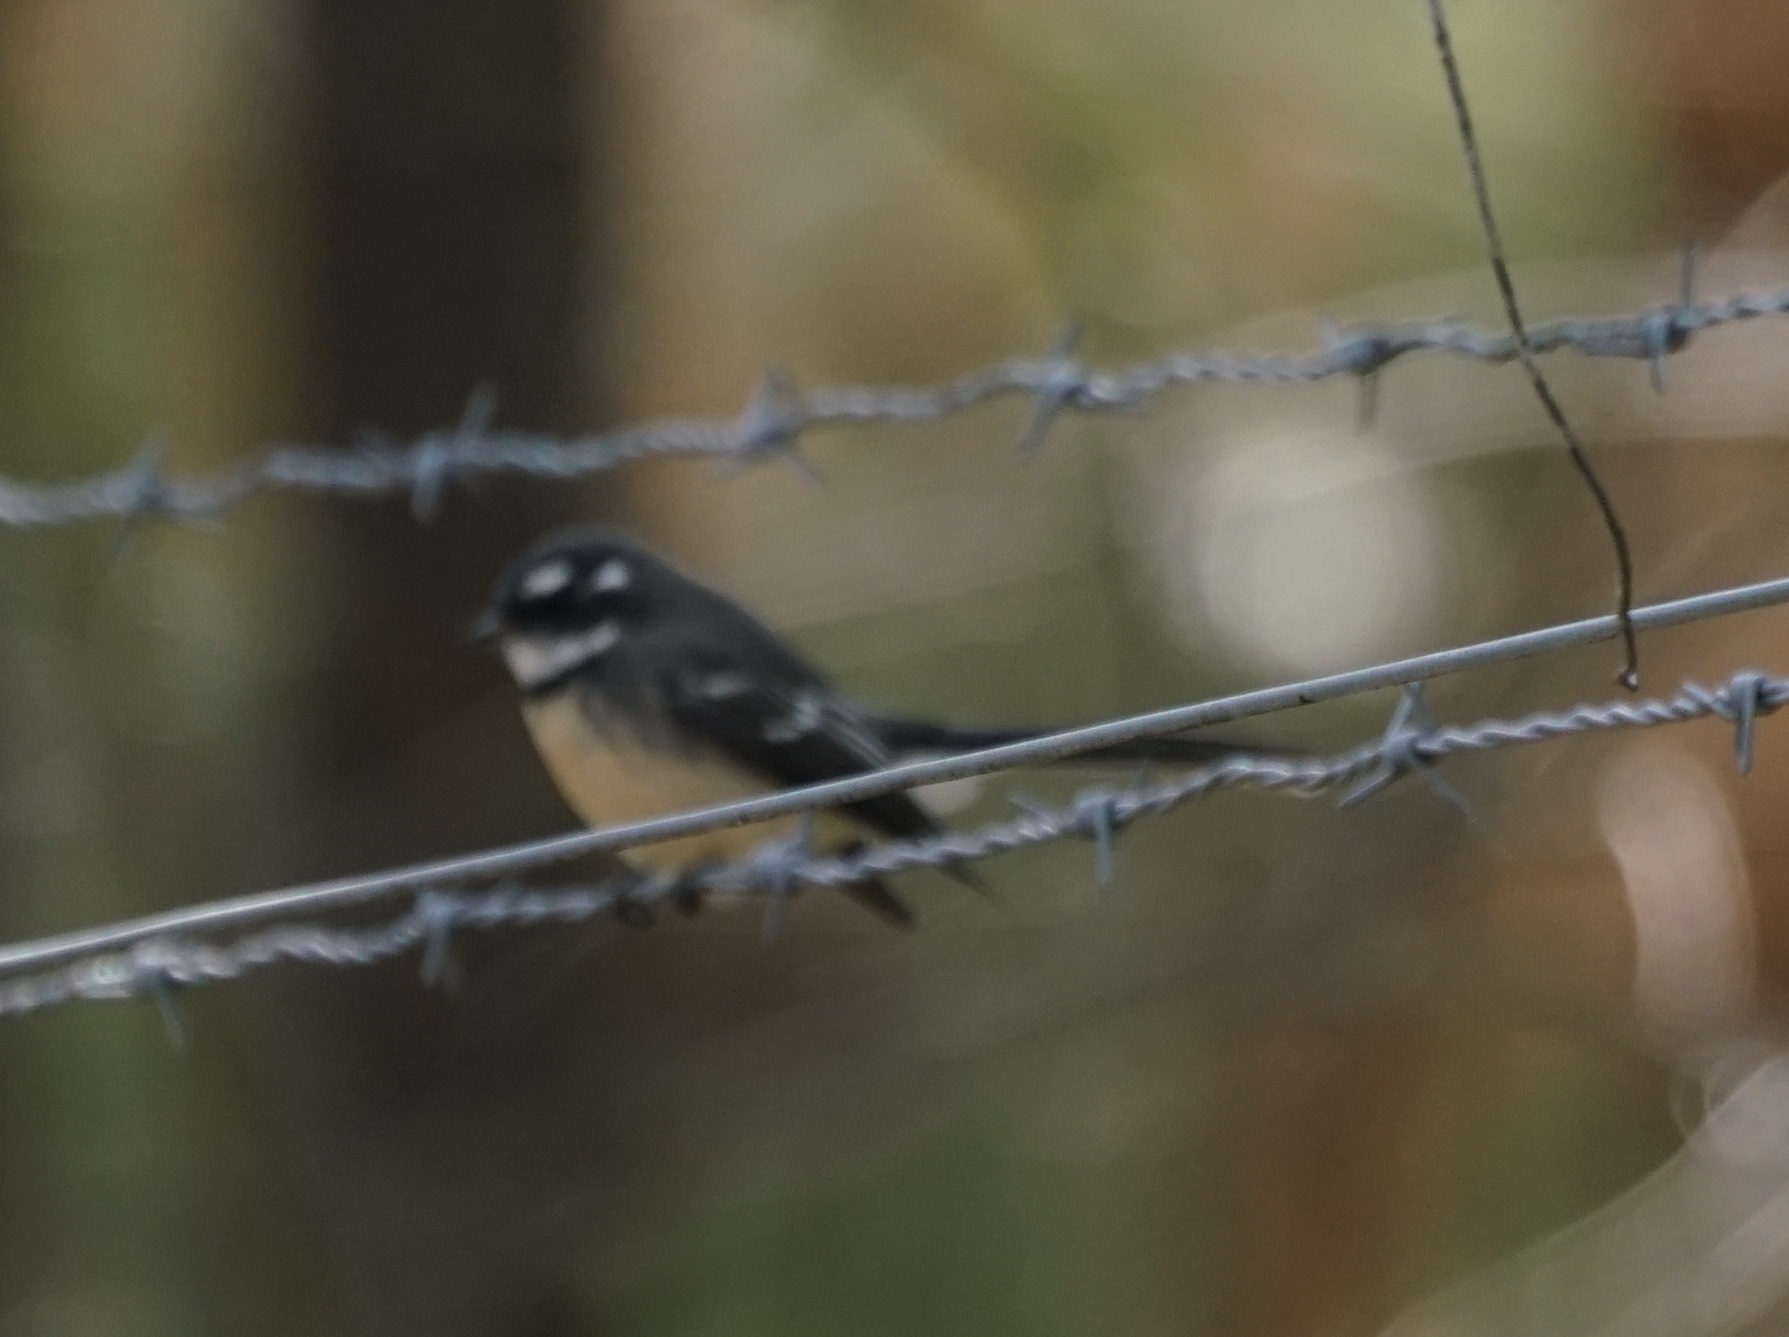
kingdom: Animalia
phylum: Chordata
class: Aves
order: Passeriformes
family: Rhipiduridae
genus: Rhipidura
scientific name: Rhipidura albiscapa
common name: Grey fantail
